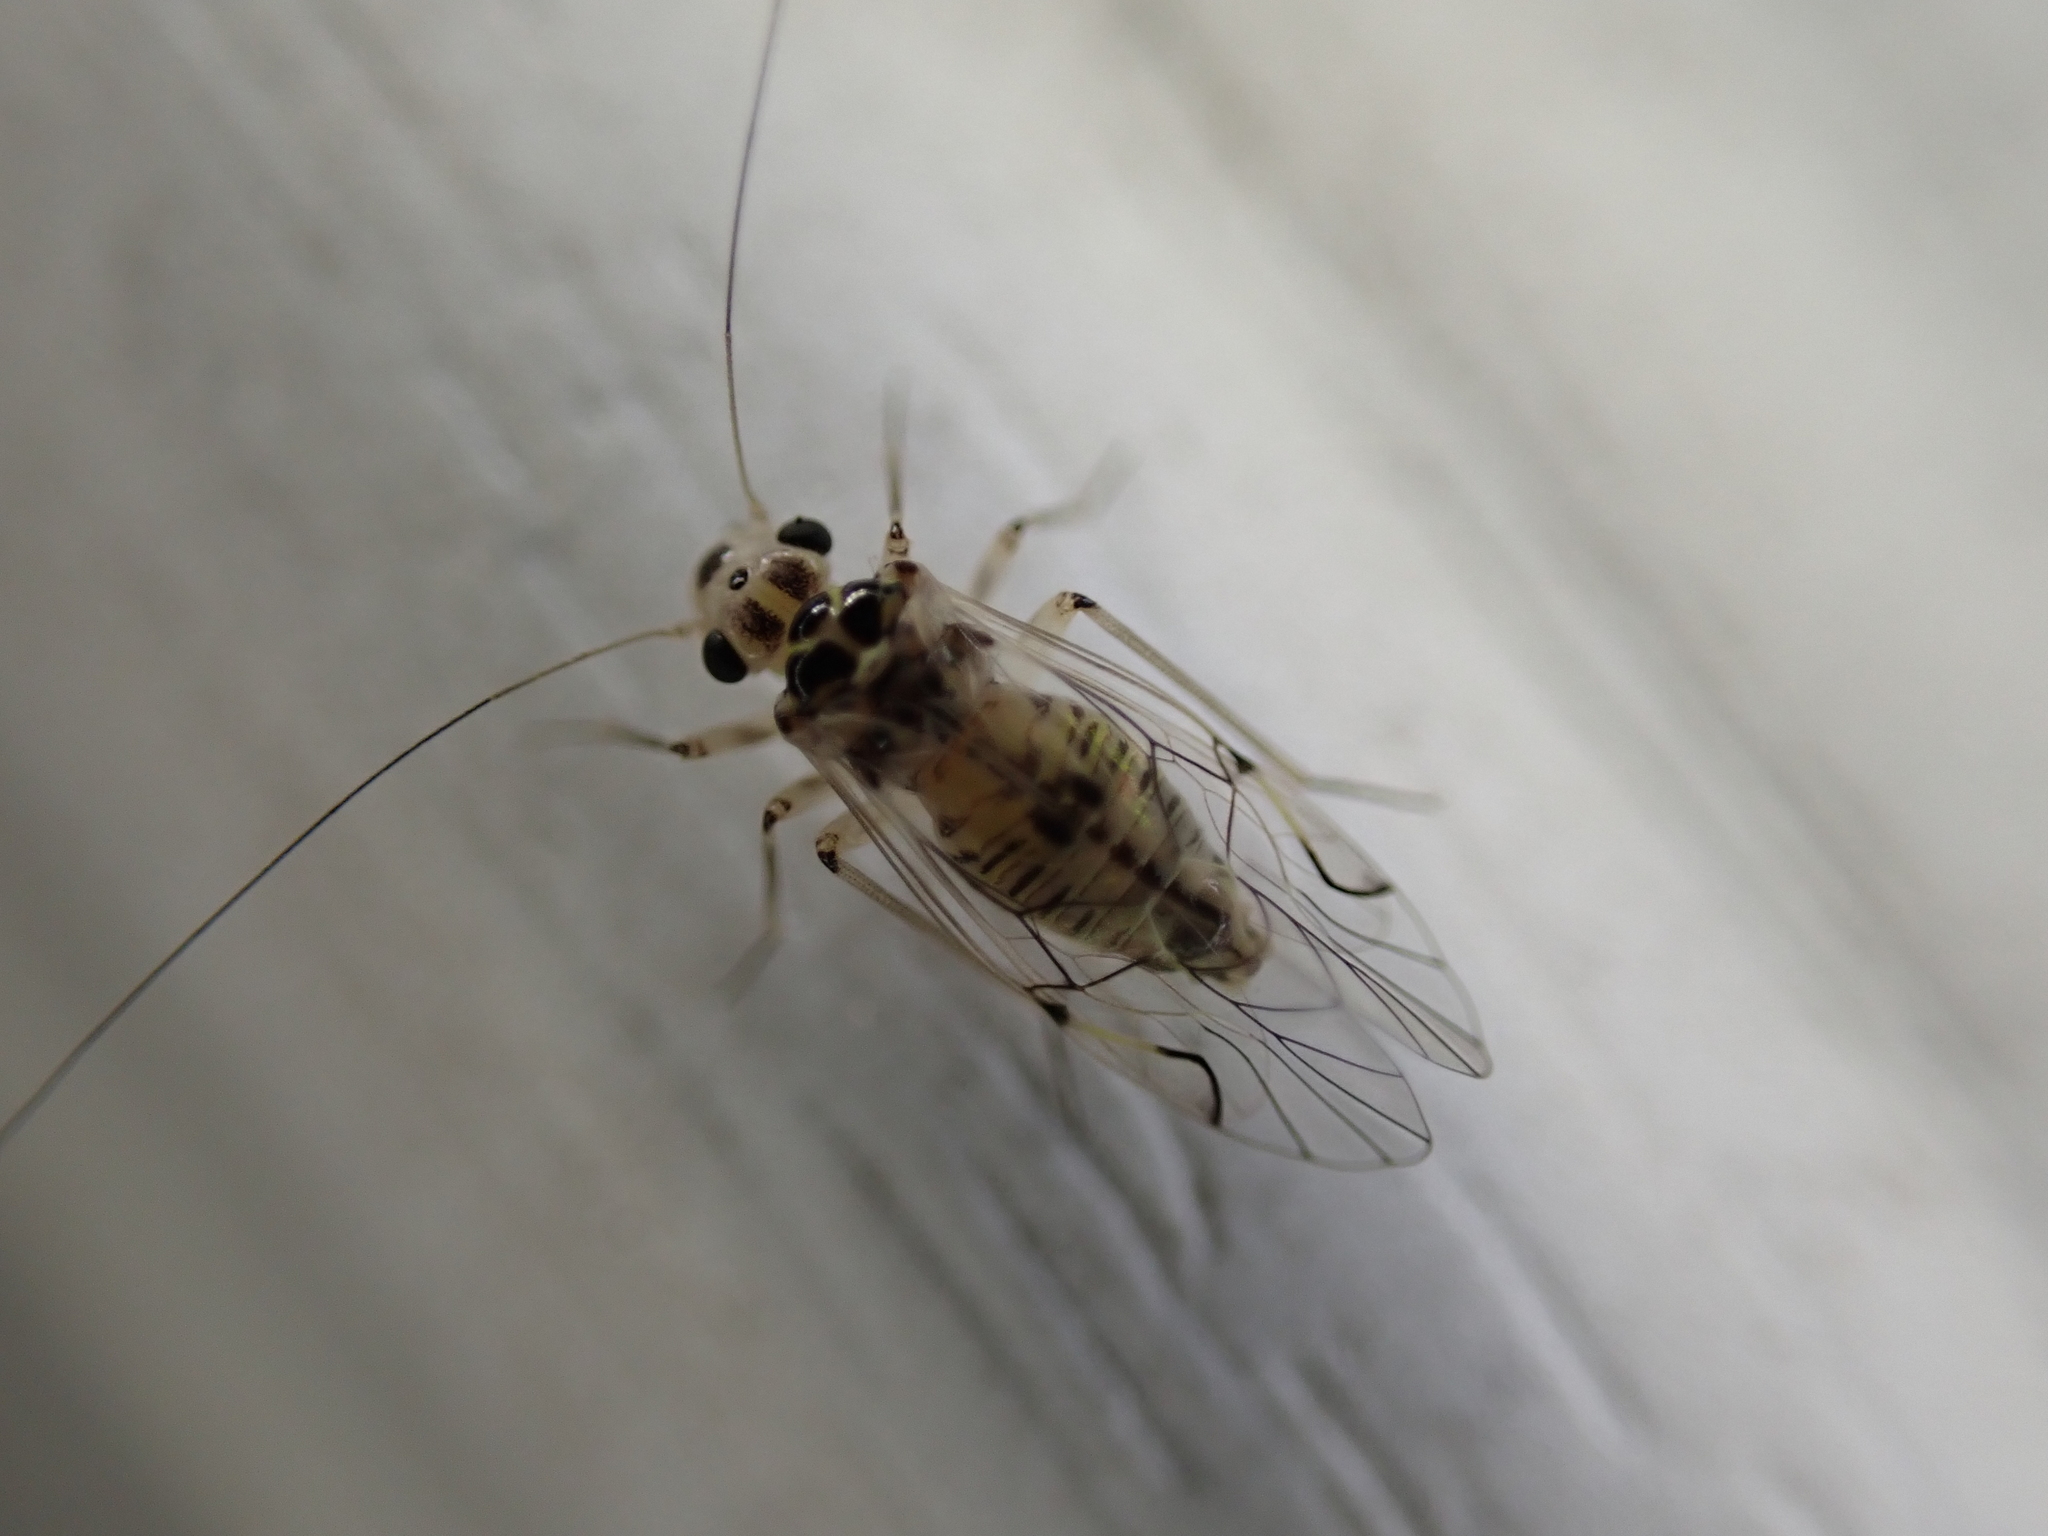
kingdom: Animalia
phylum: Arthropoda
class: Insecta
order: Psocodea
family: Psocidae
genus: Metylophorus
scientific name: Metylophorus purus
